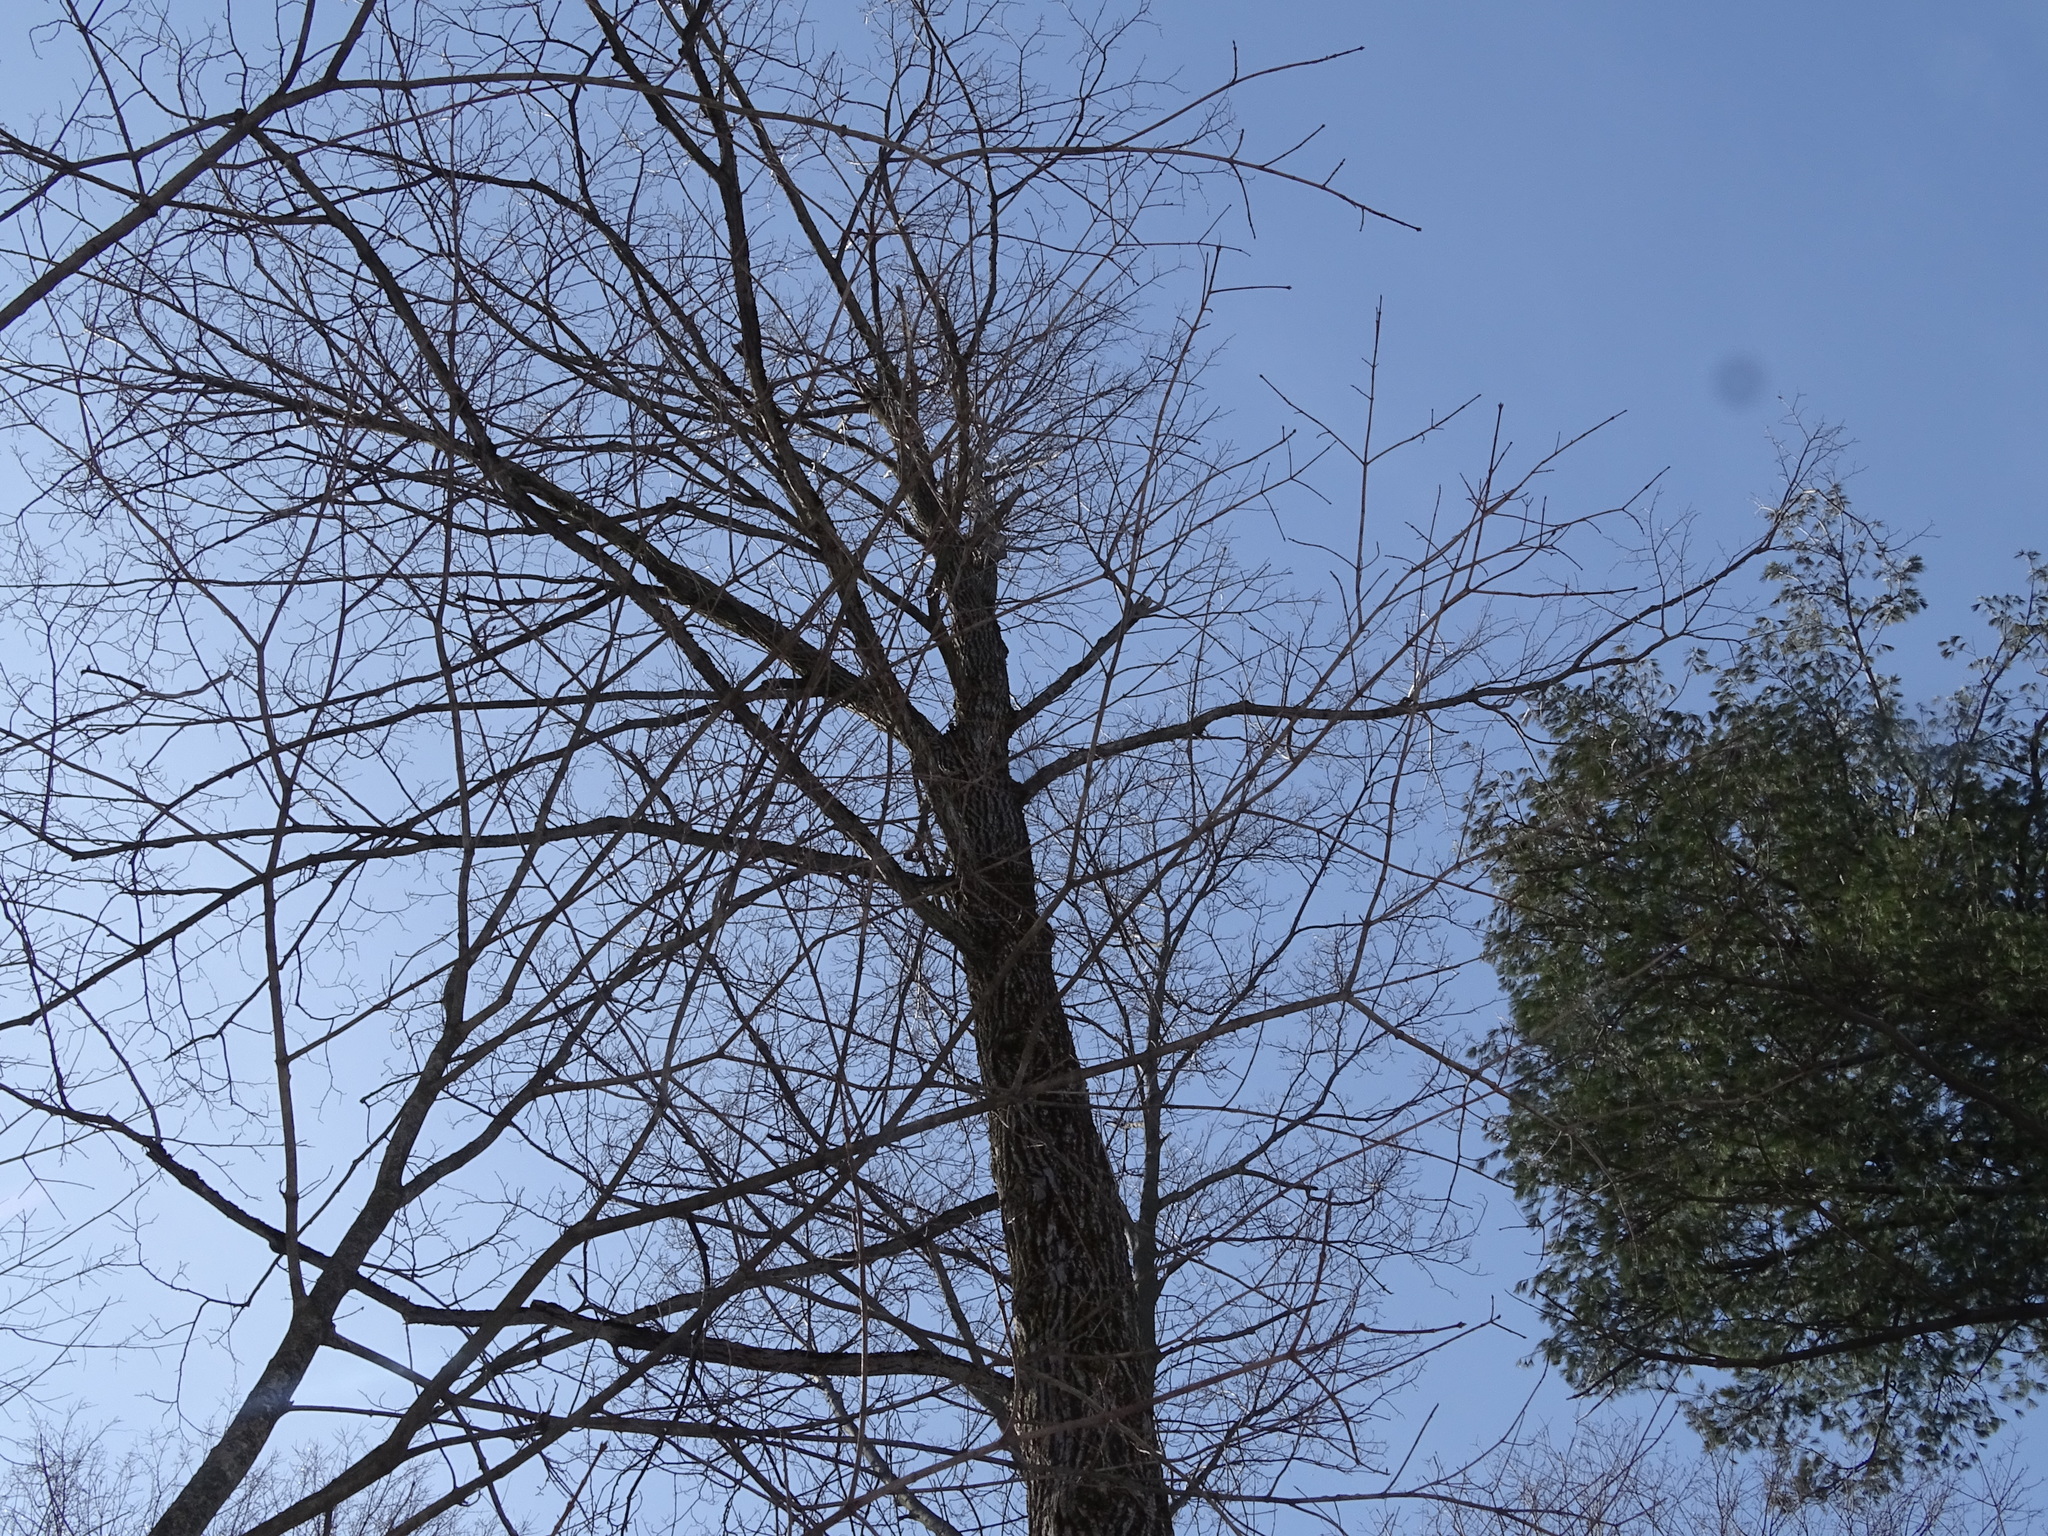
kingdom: Plantae
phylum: Tracheophyta
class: Magnoliopsida
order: Malvales
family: Malvaceae
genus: Tilia
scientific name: Tilia americana
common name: Basswood
